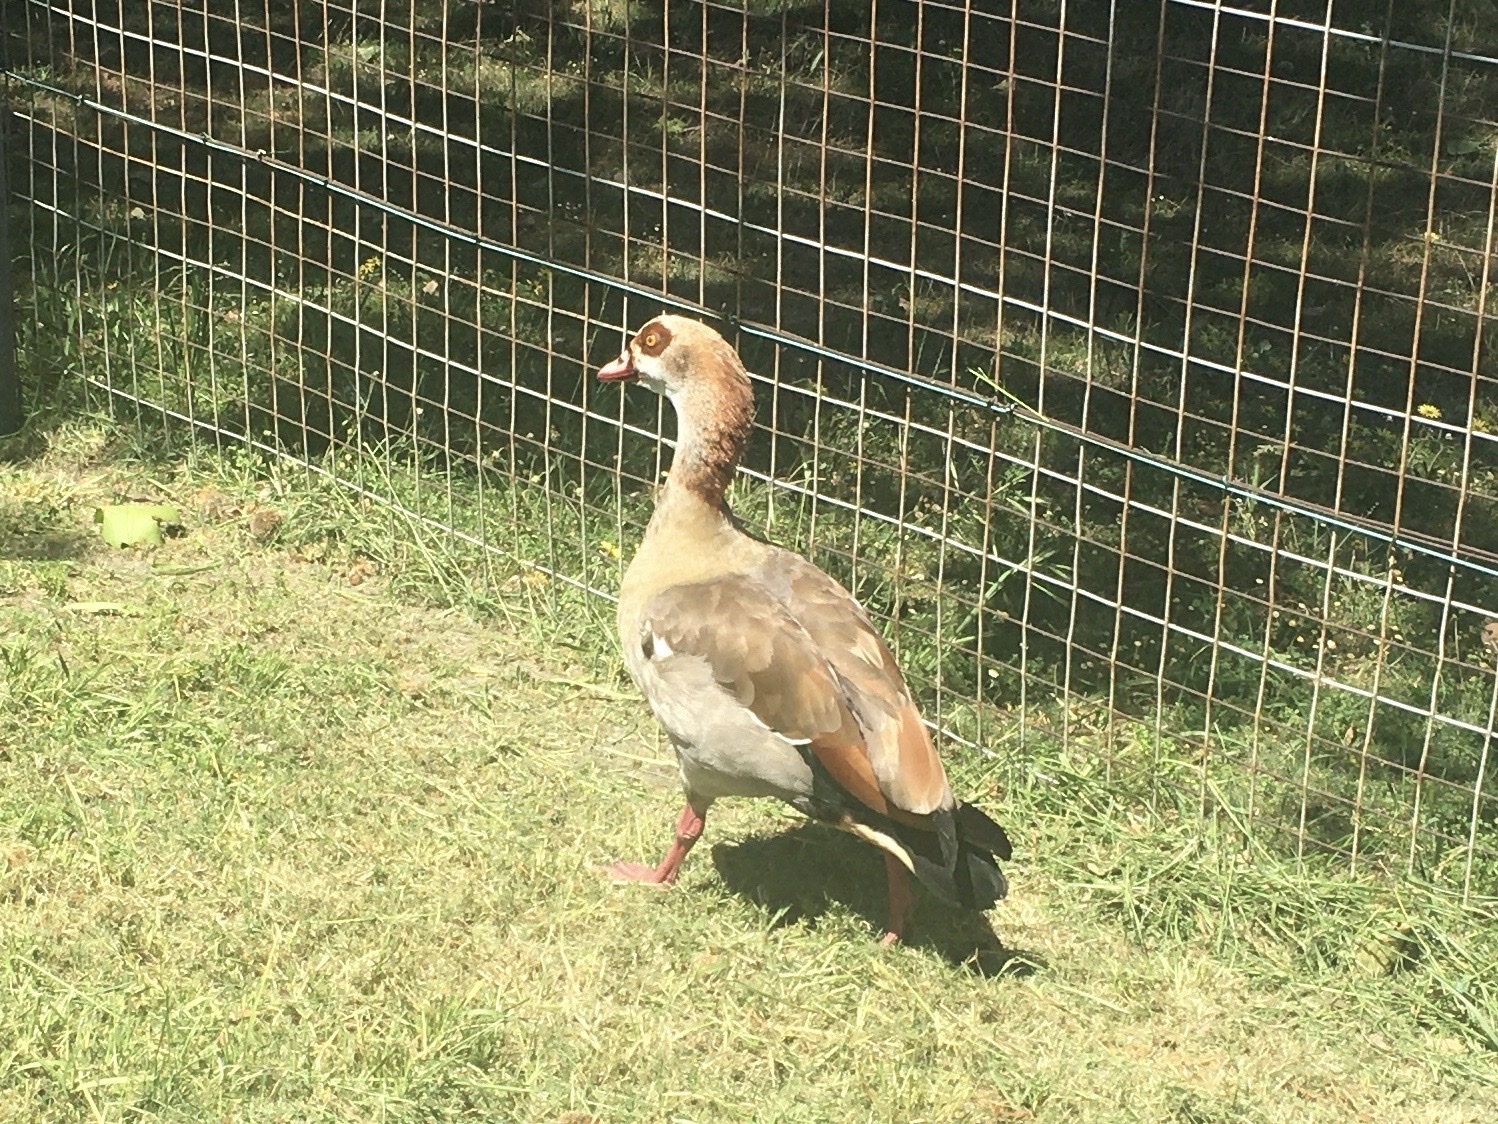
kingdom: Animalia
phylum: Chordata
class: Aves
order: Anseriformes
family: Anatidae
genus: Alopochen
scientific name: Alopochen aegyptiaca
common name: Egyptian goose
